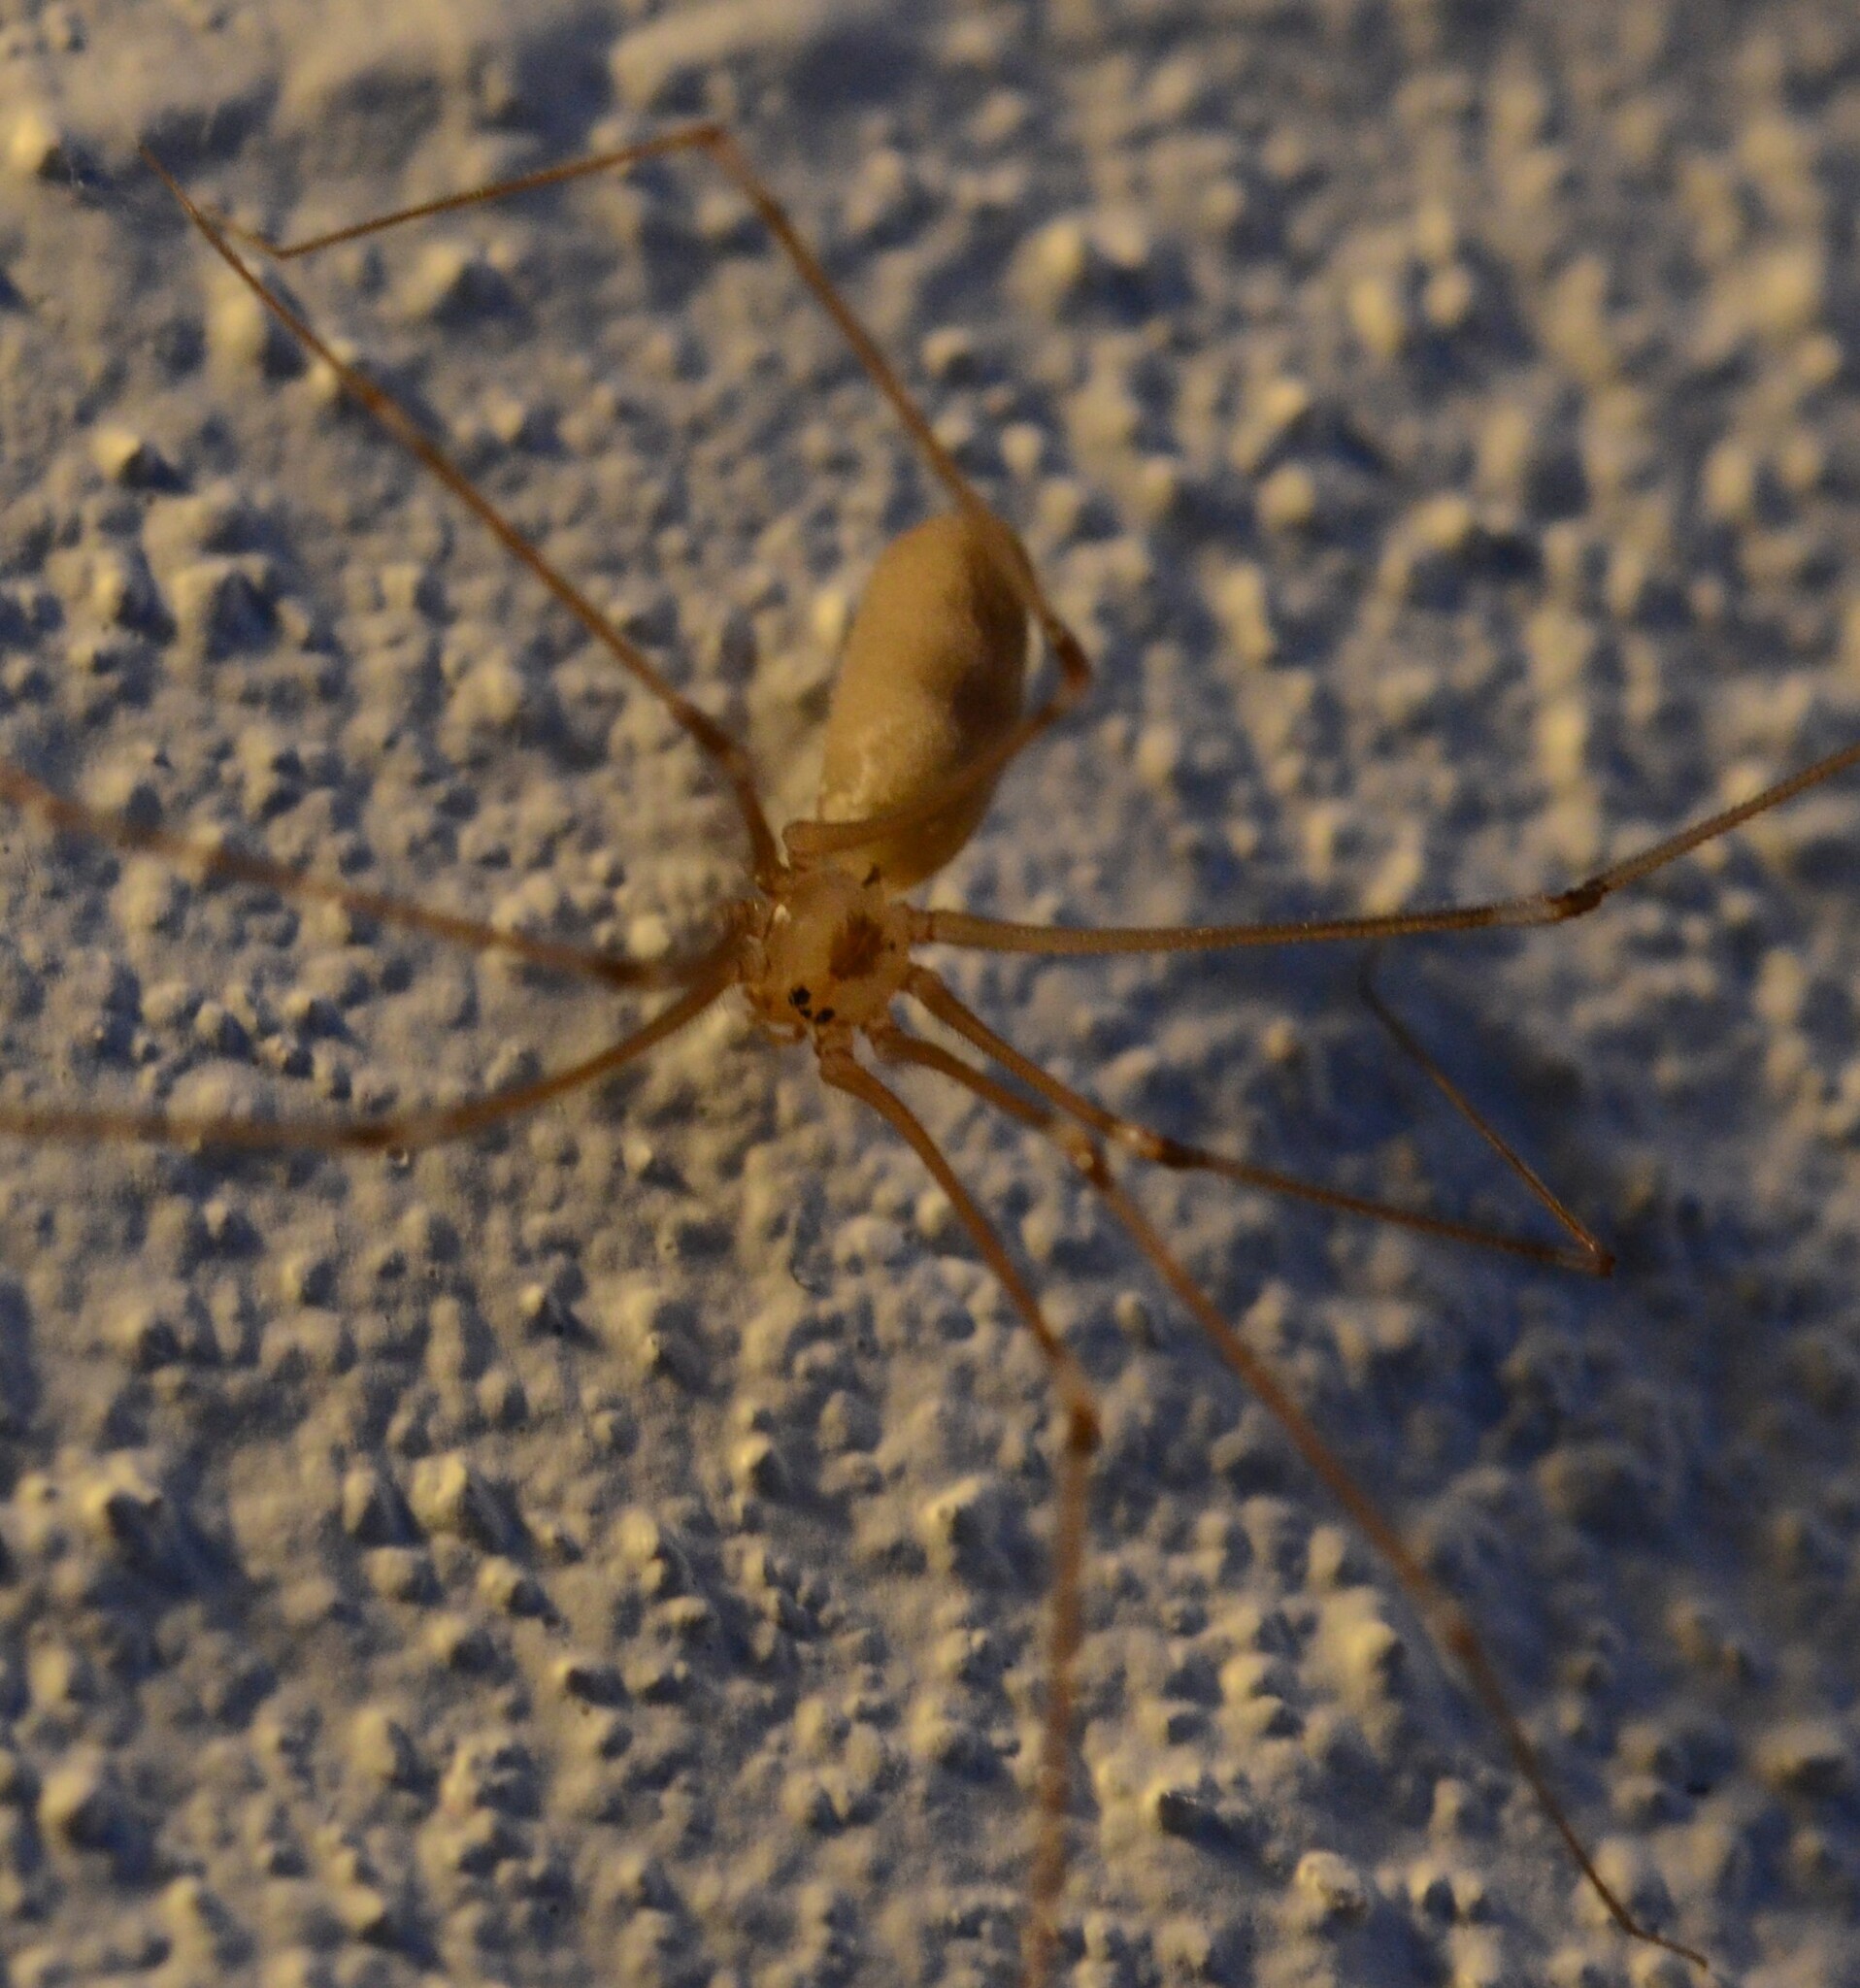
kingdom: Animalia
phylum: Arthropoda
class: Arachnida
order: Araneae
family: Pholcidae
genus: Pholcus
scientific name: Pholcus phalangioides
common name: Longbodied cellar spider
